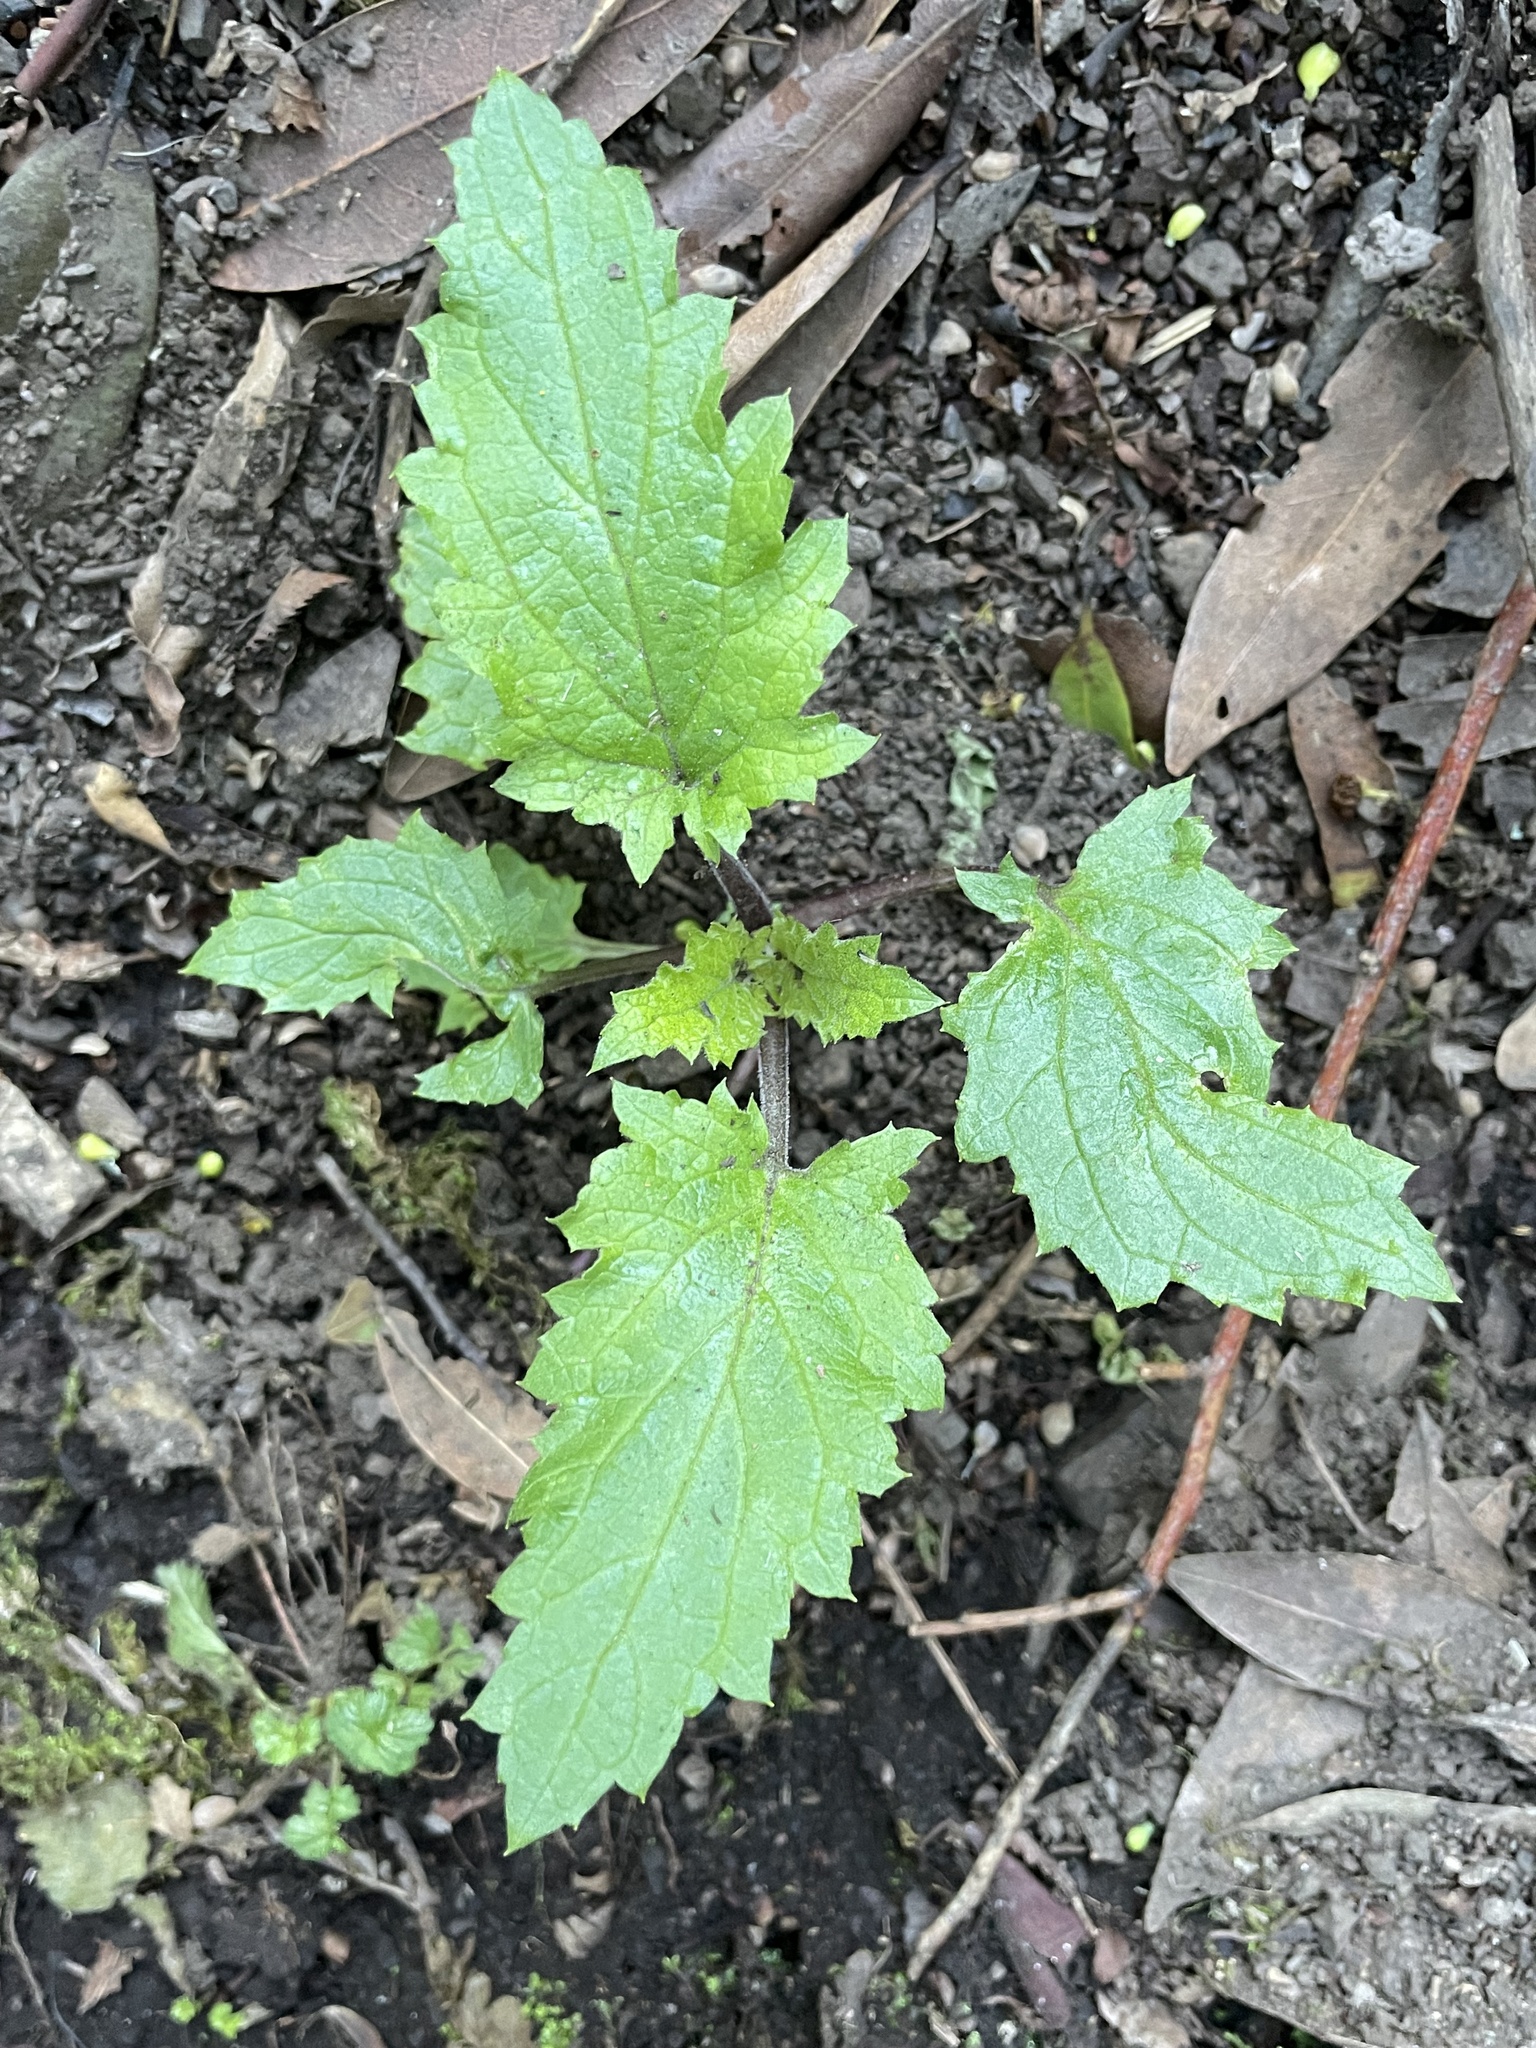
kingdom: Plantae
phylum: Tracheophyta
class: Magnoliopsida
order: Lamiales
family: Scrophulariaceae
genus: Scrophularia
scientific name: Scrophularia californica
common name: California figwort
